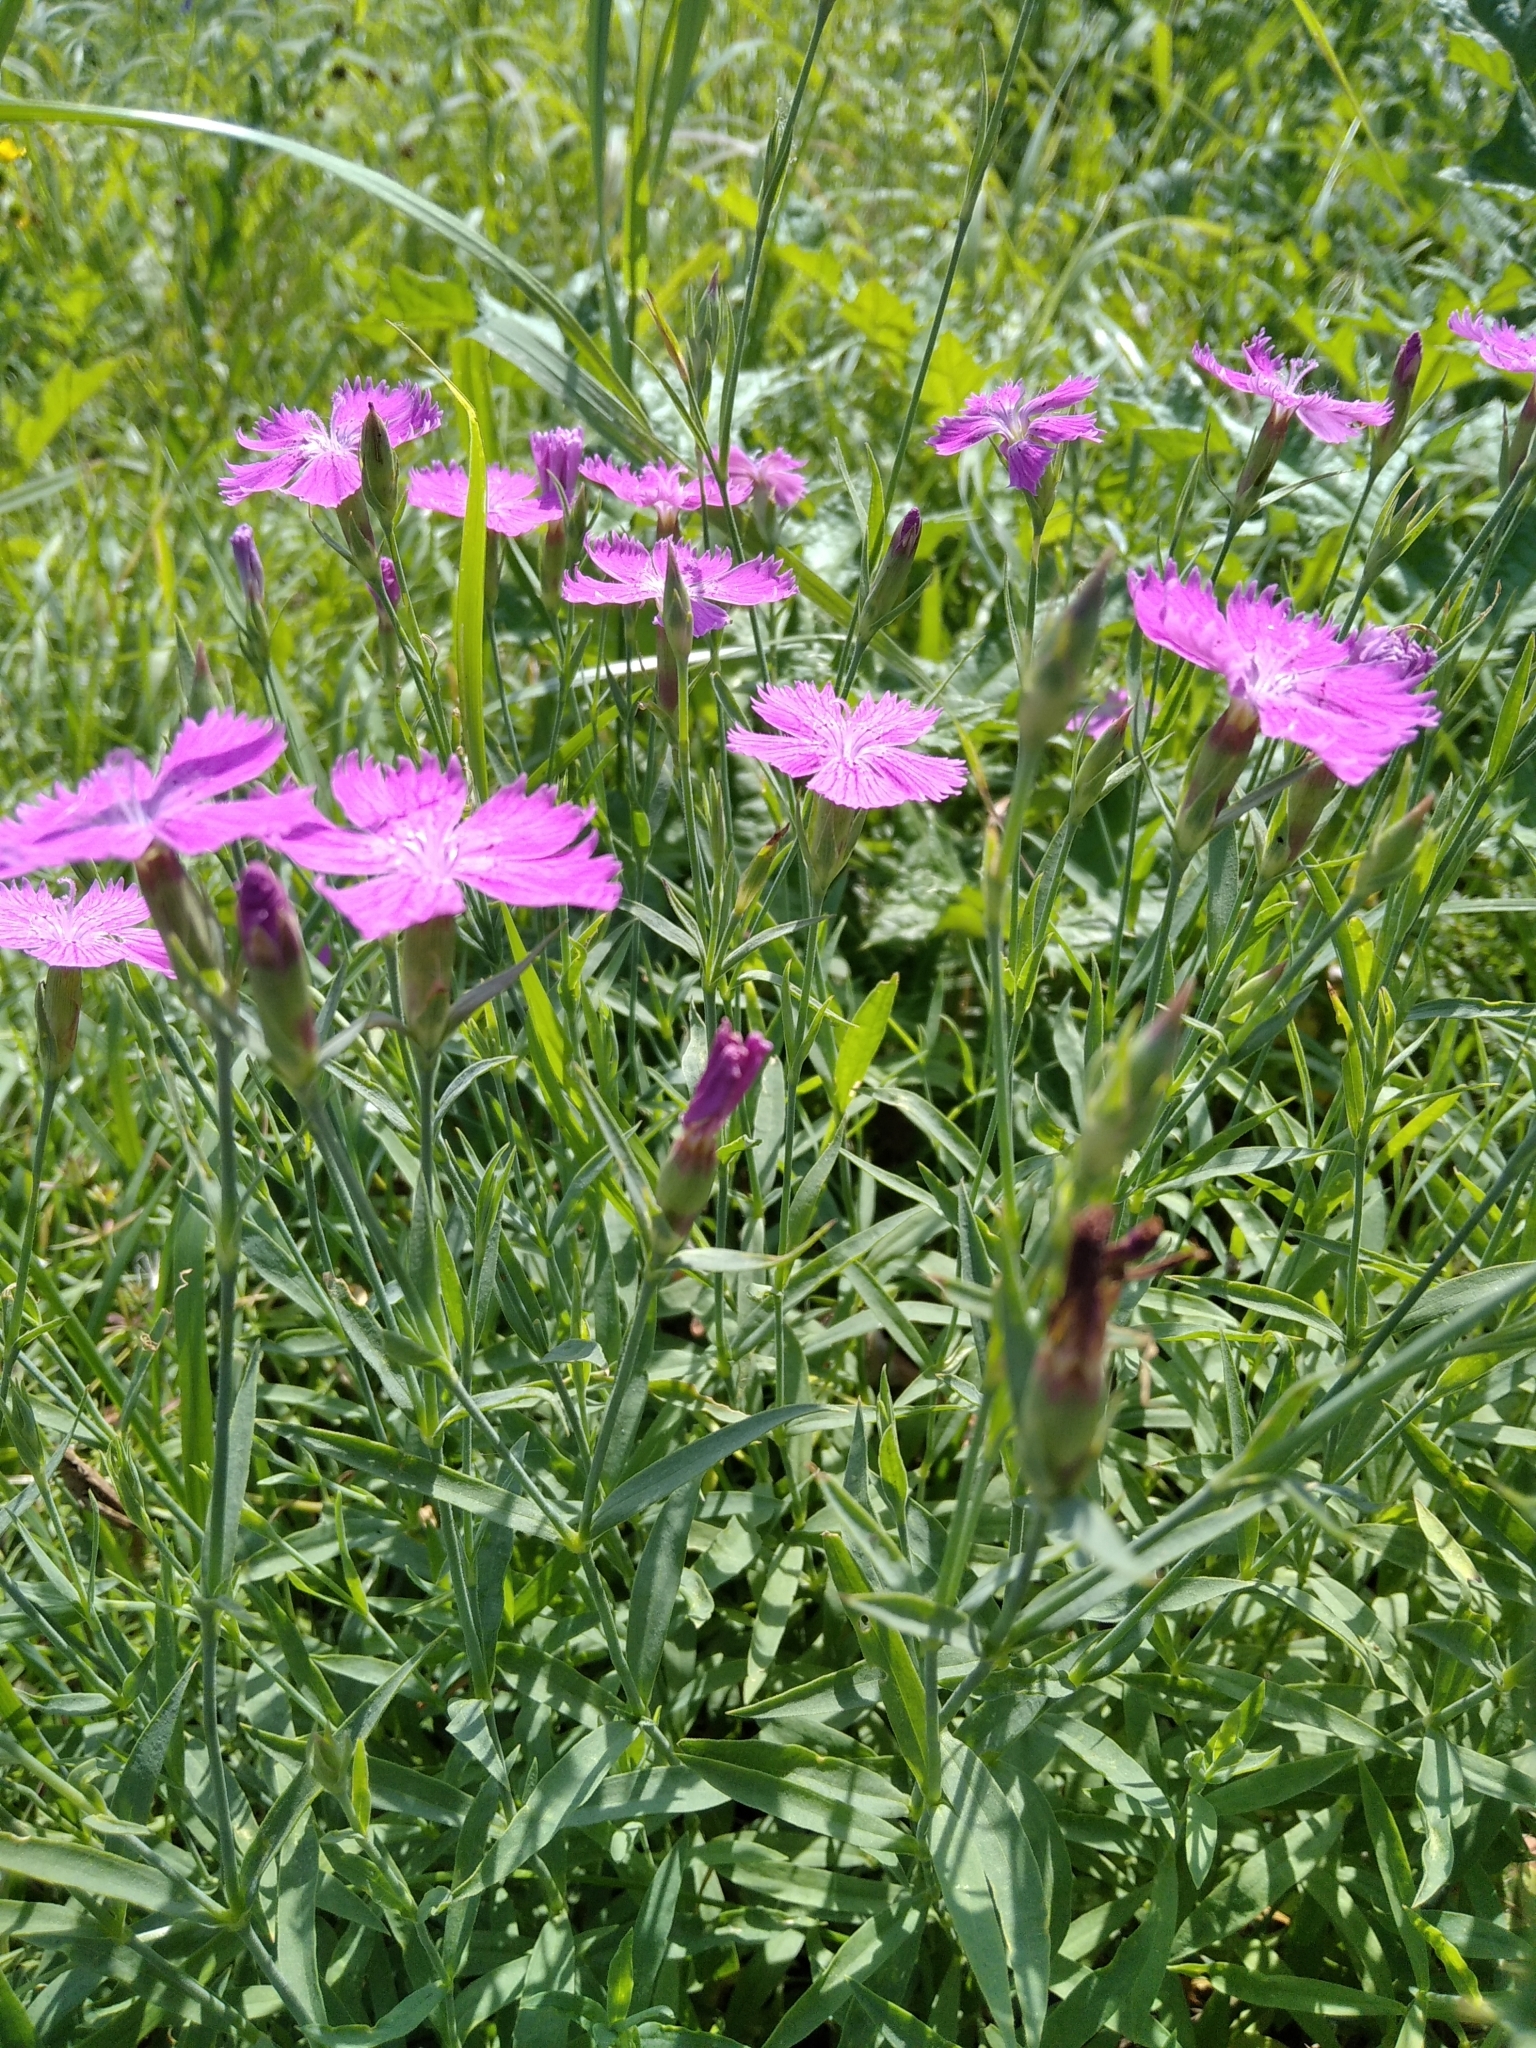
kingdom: Plantae
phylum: Tracheophyta
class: Magnoliopsida
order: Caryophyllales
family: Caryophyllaceae
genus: Dianthus
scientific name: Dianthus chinensis
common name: Rainbow pink
